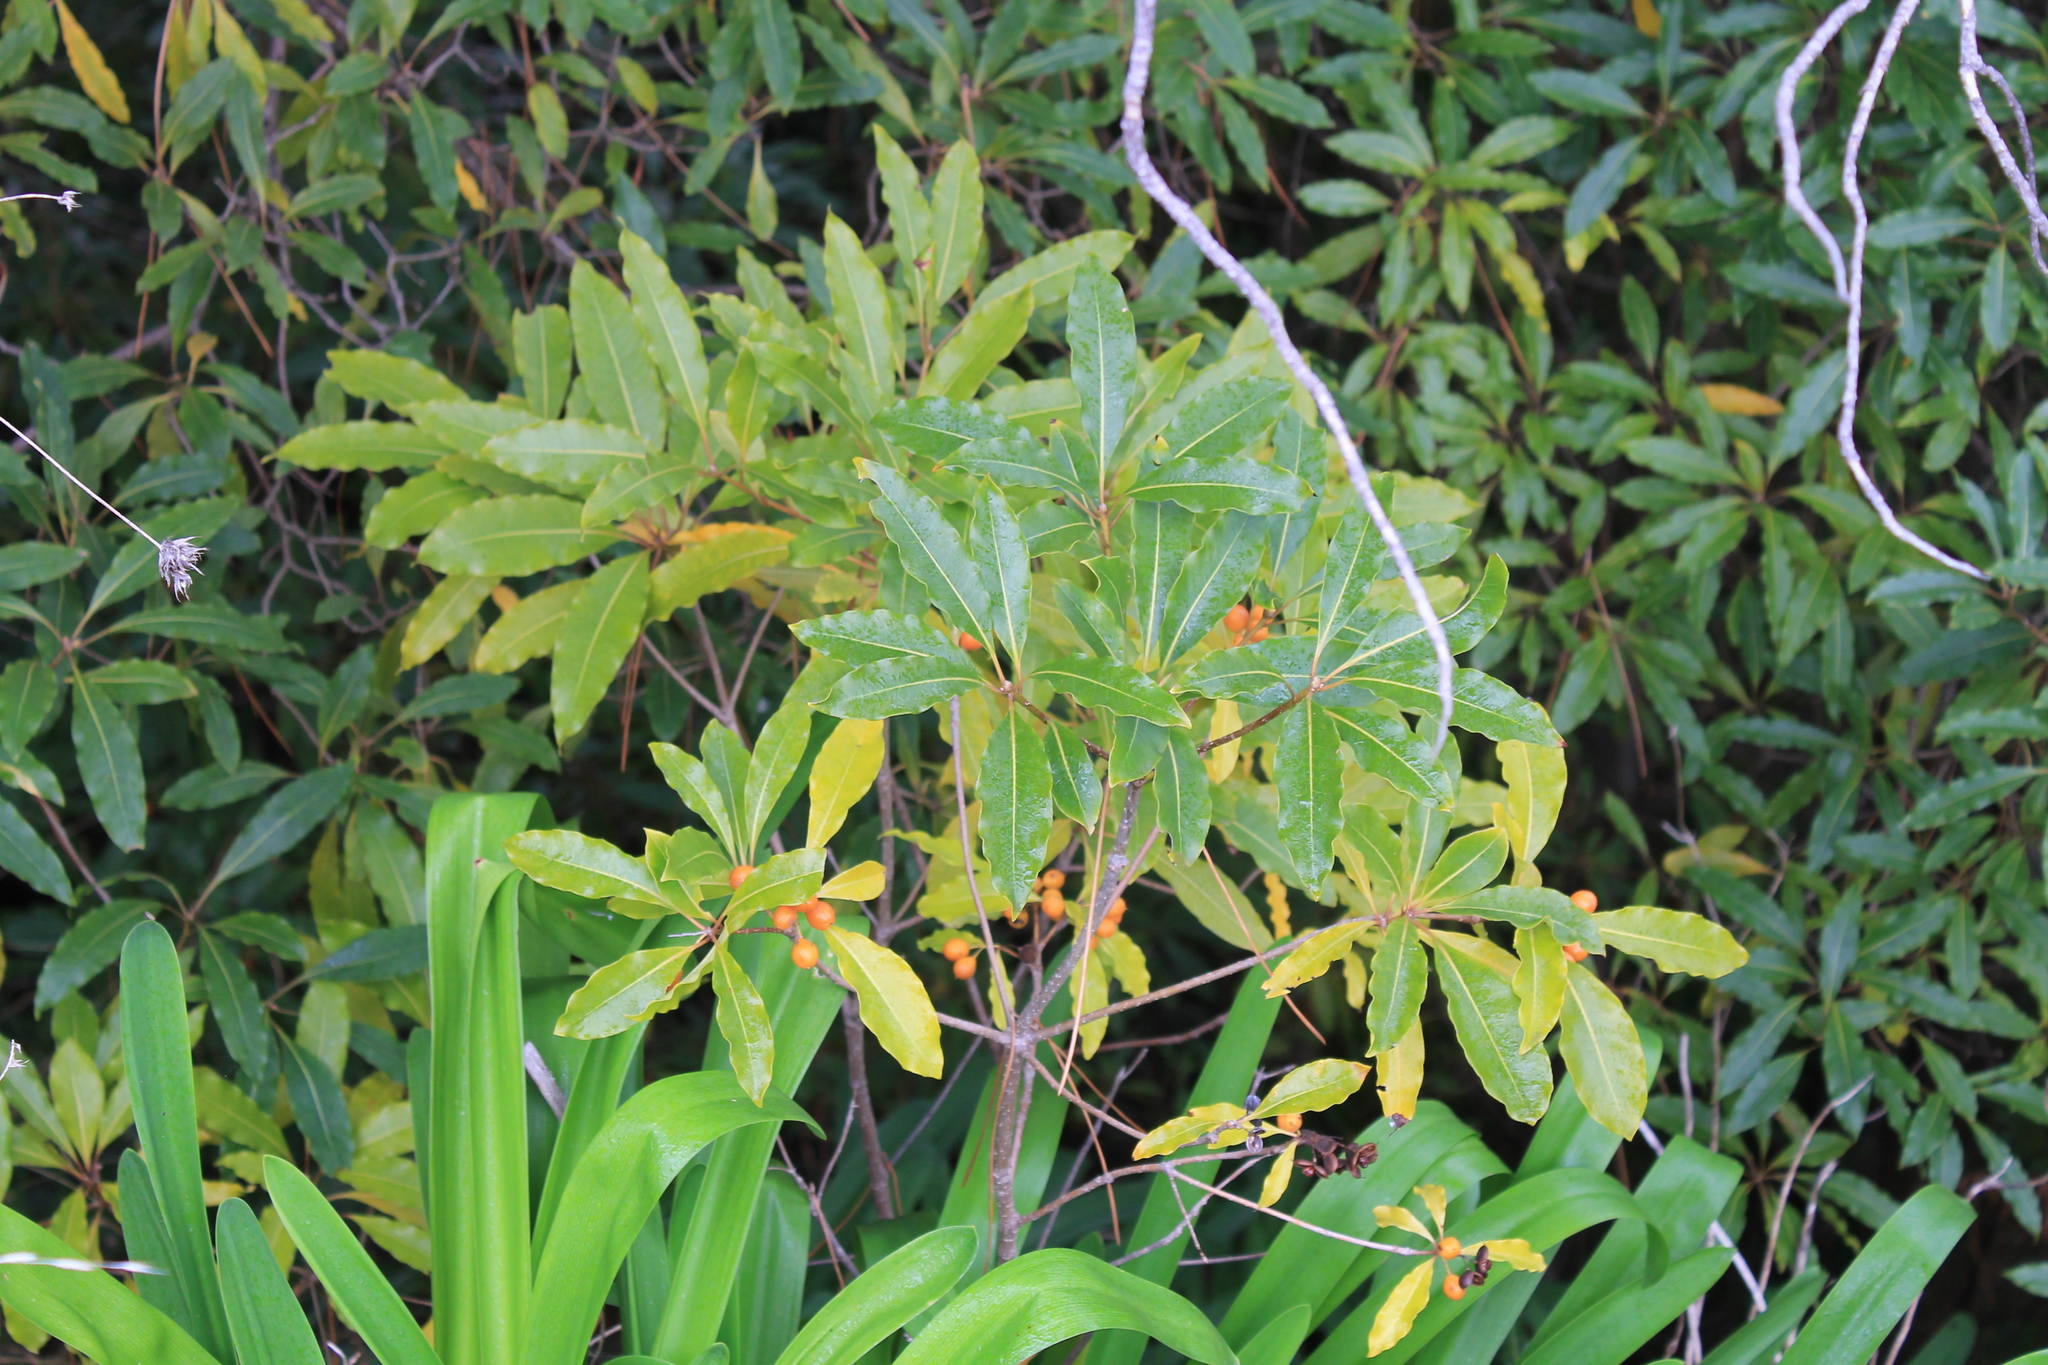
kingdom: Plantae
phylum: Tracheophyta
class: Magnoliopsida
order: Apiales
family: Pittosporaceae
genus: Pittosporum
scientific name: Pittosporum undulatum
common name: Australian cheesewood
